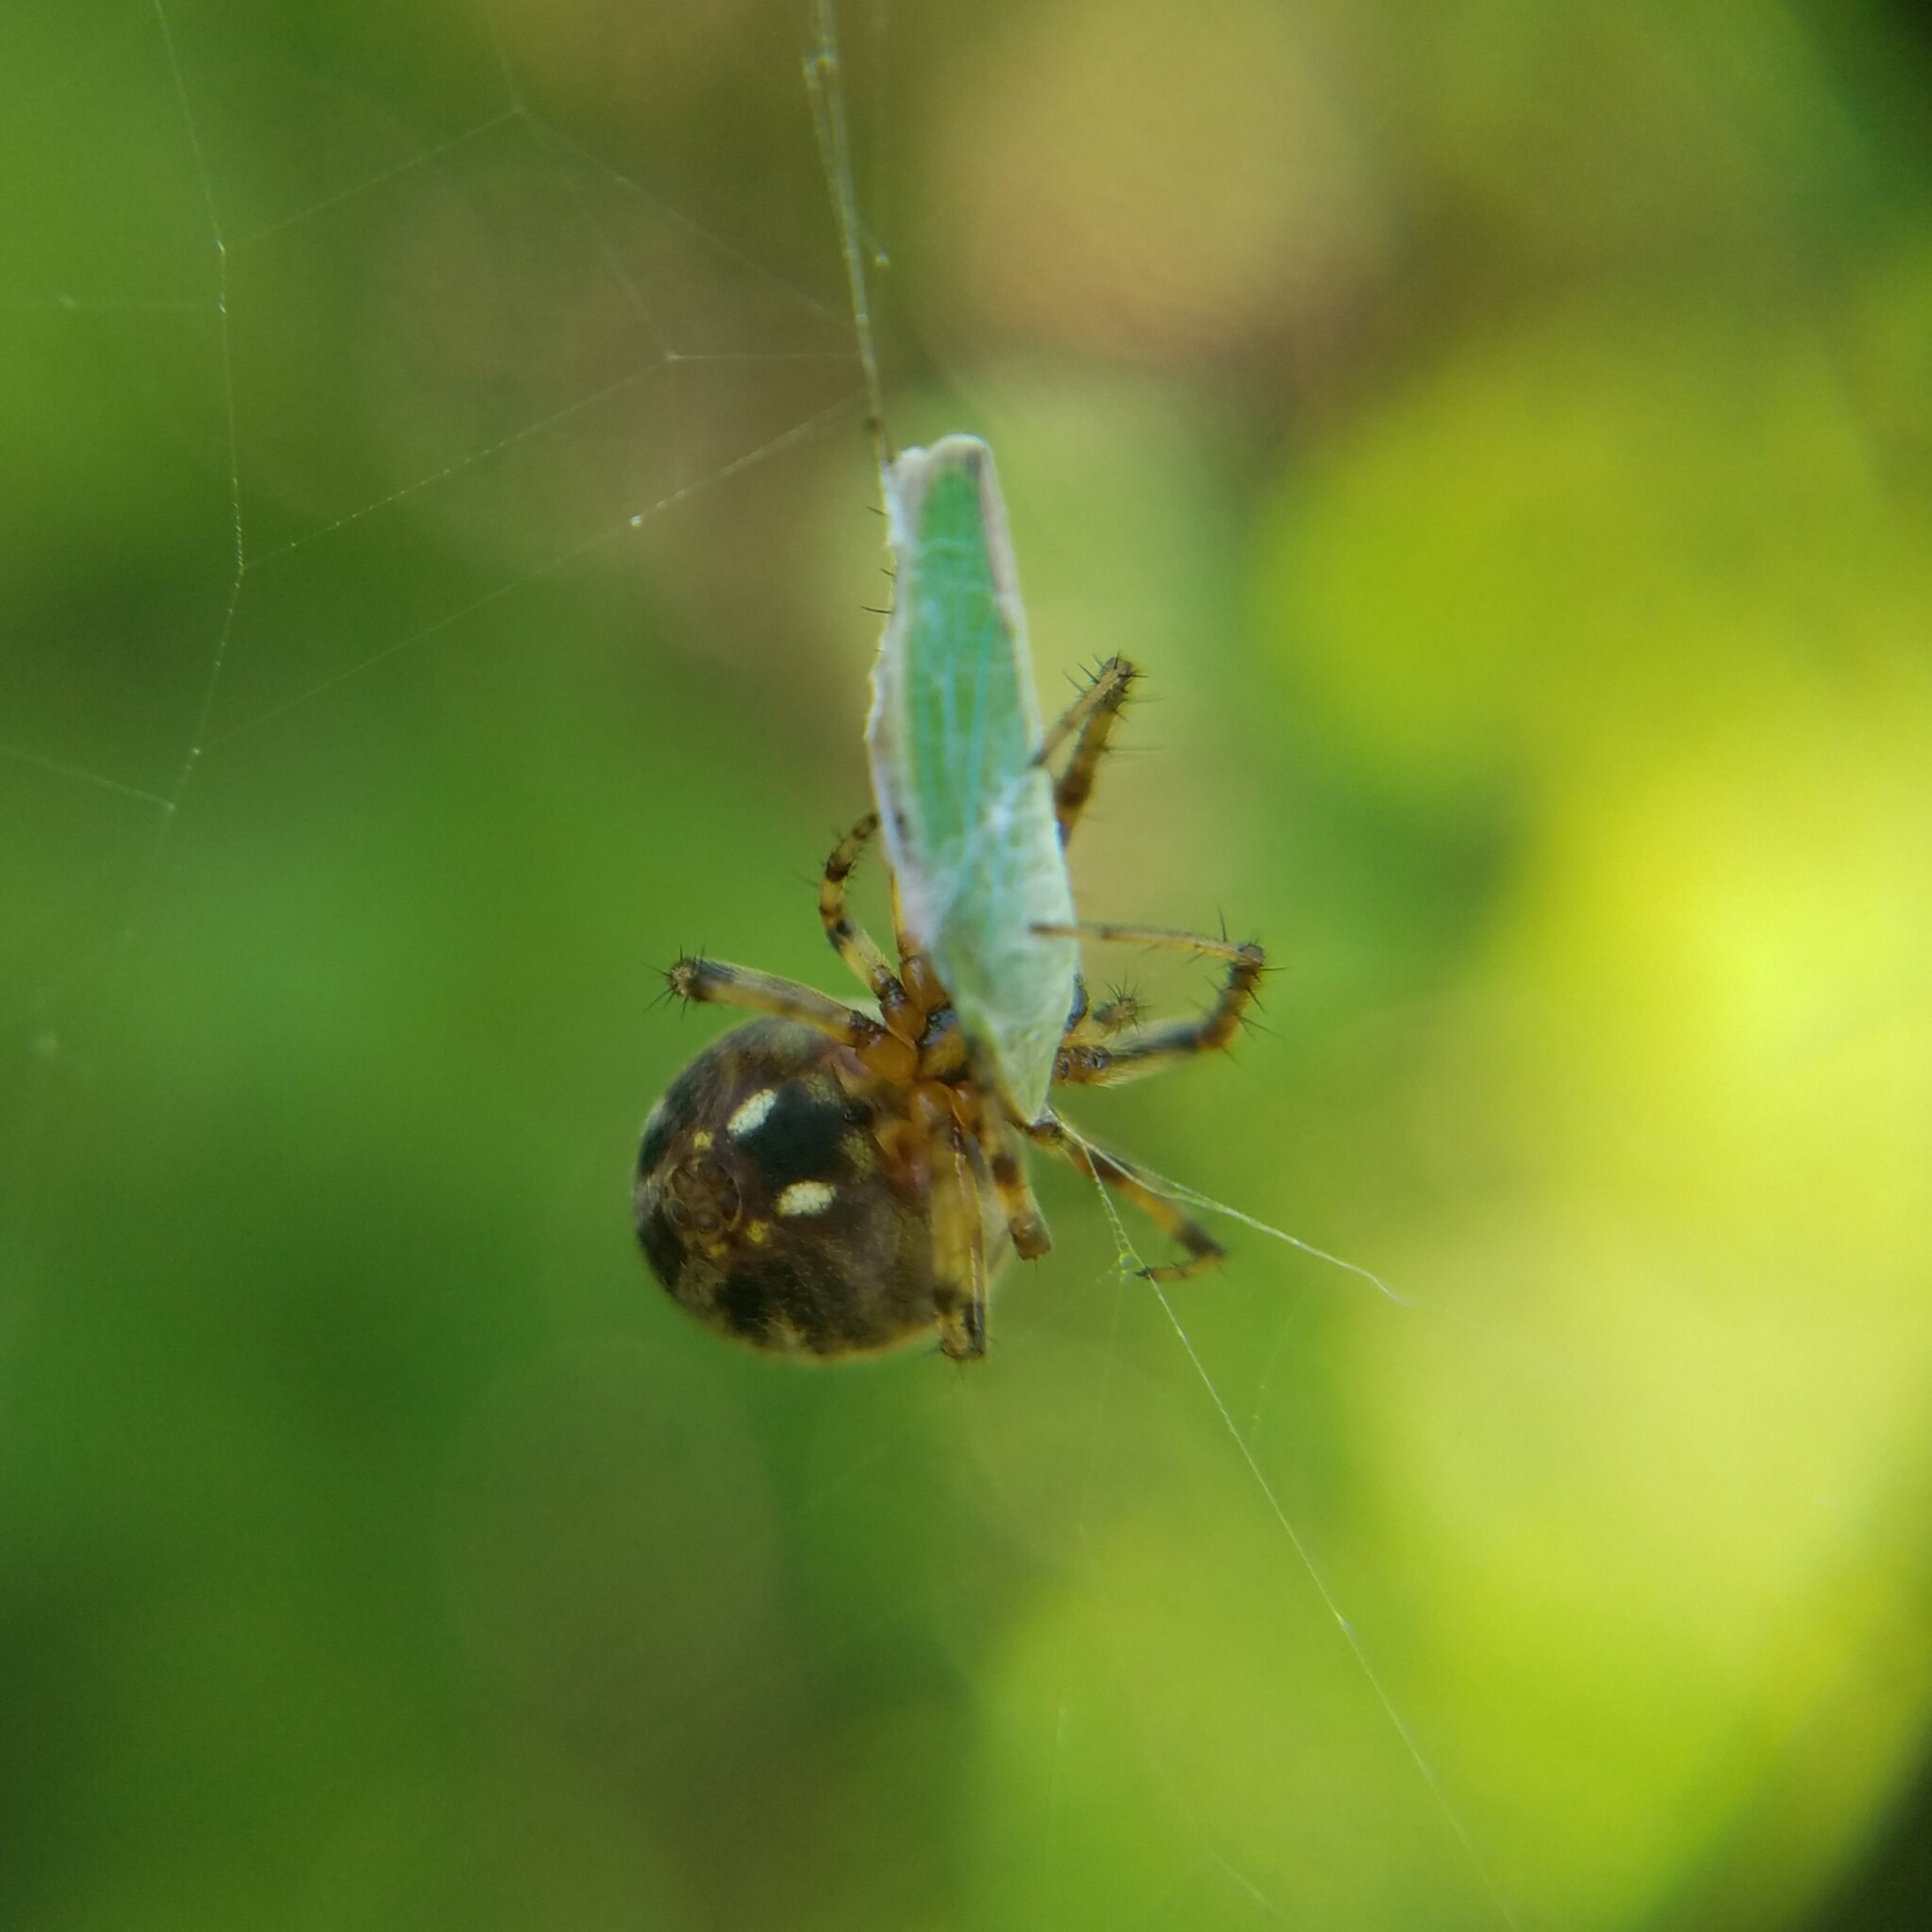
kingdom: Animalia
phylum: Arthropoda
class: Arachnida
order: Araneae
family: Araneidae
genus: Neoscona
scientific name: Neoscona arabesca
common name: Orb weavers
